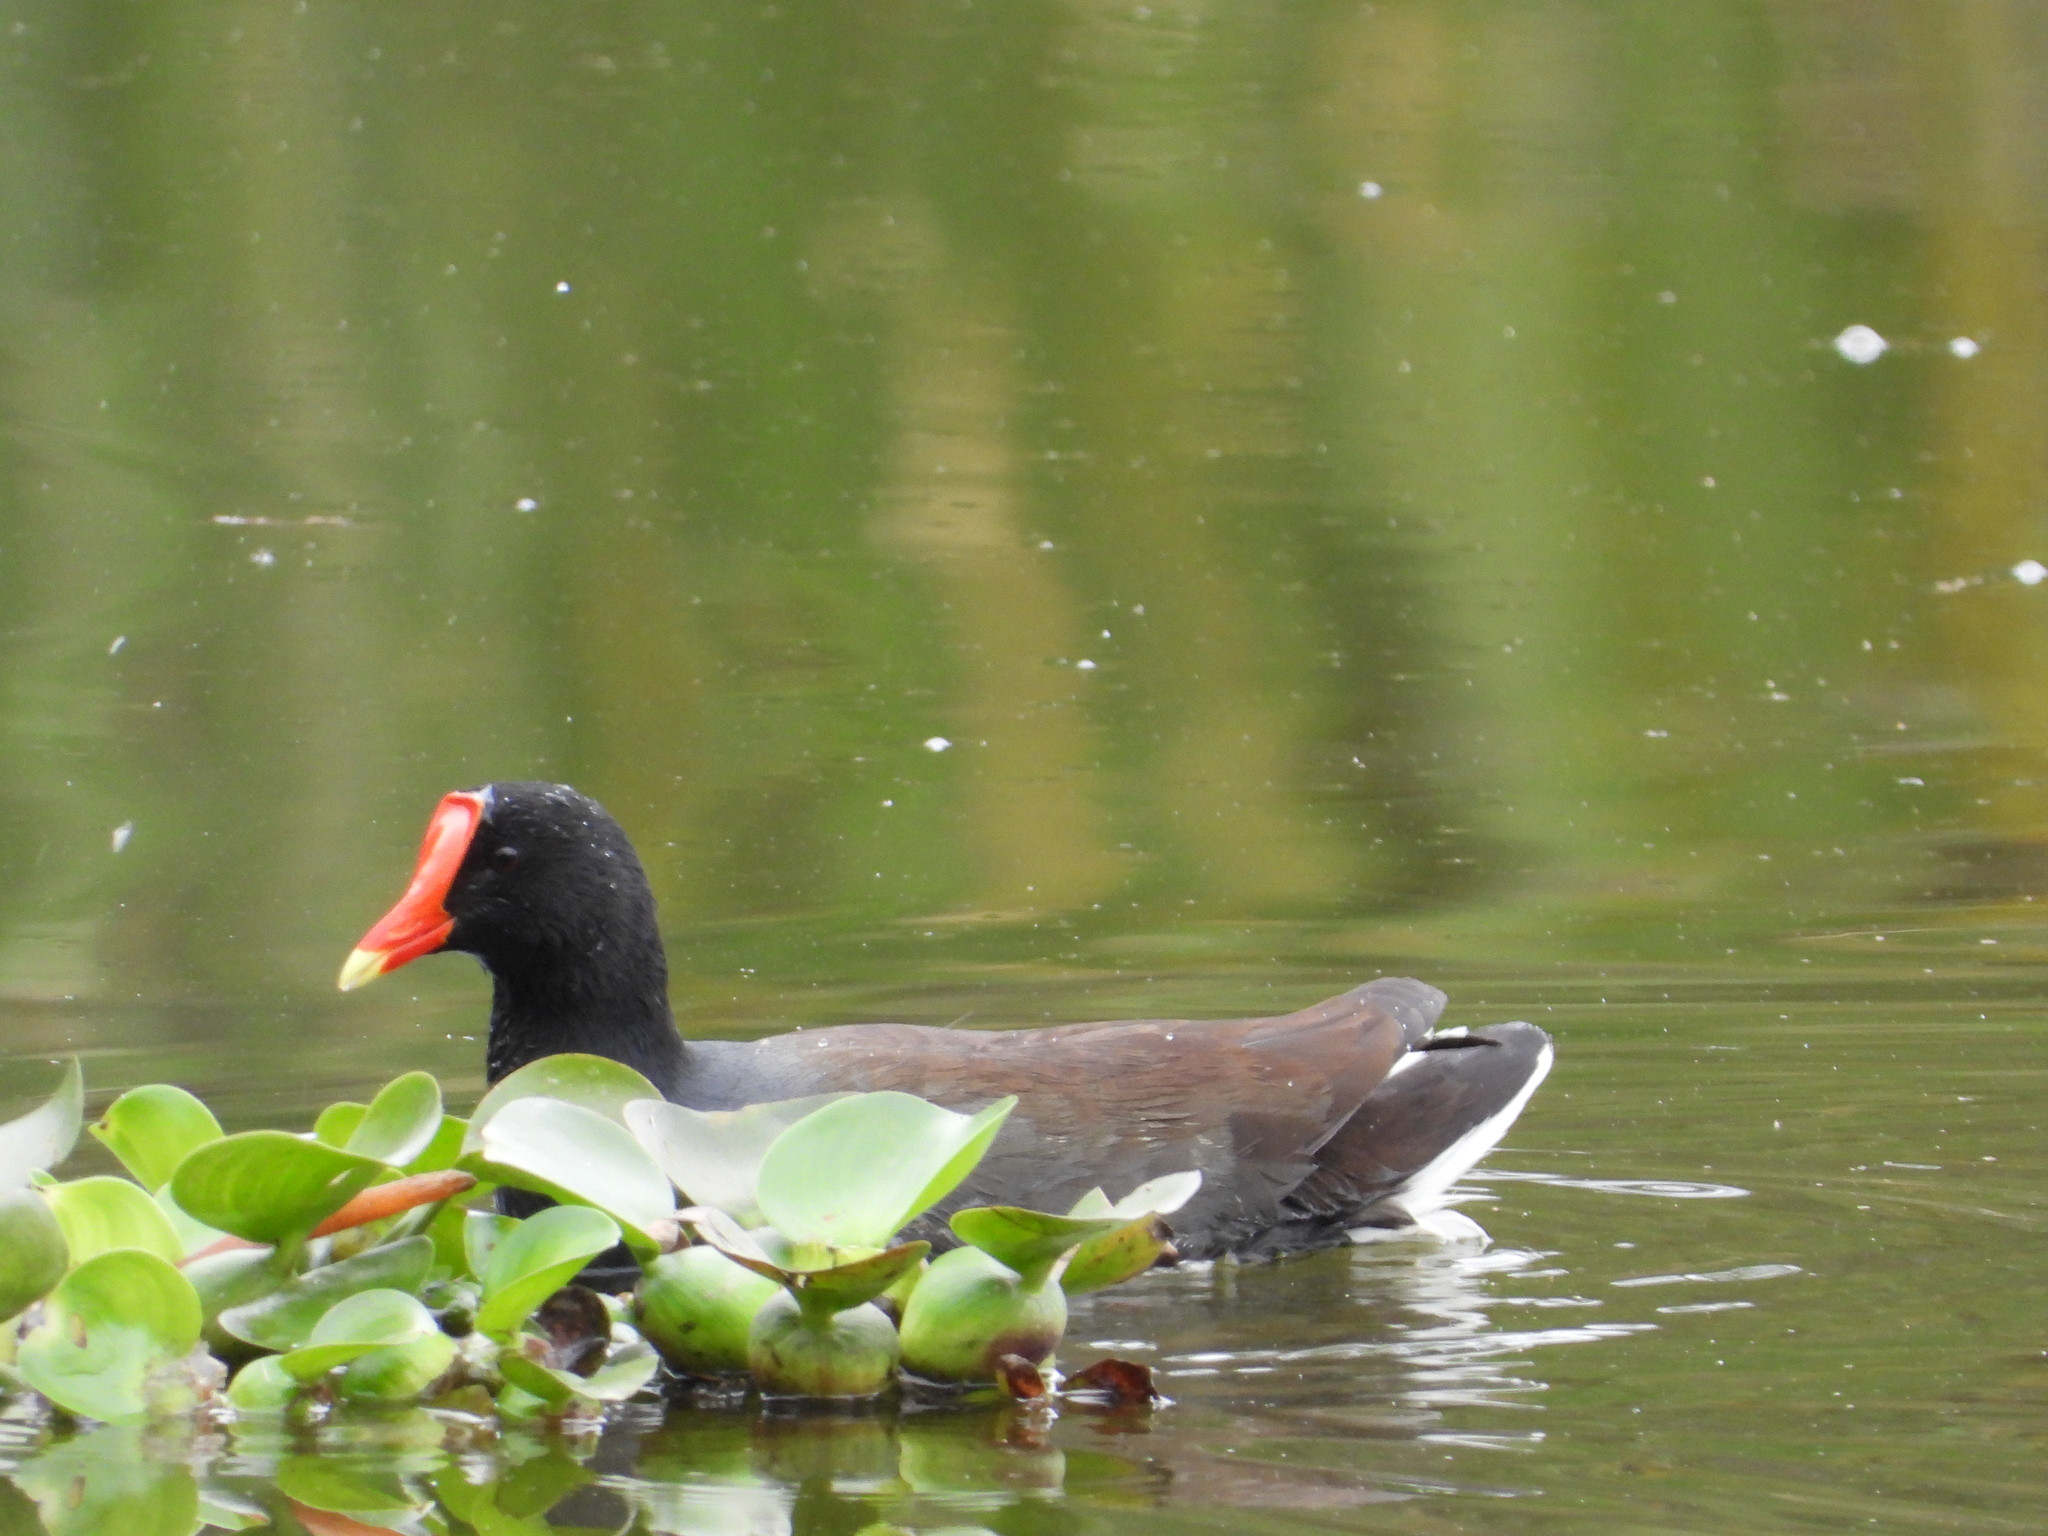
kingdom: Animalia
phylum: Chordata
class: Aves
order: Gruiformes
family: Rallidae
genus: Gallinula
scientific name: Gallinula chloropus
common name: Common moorhen
